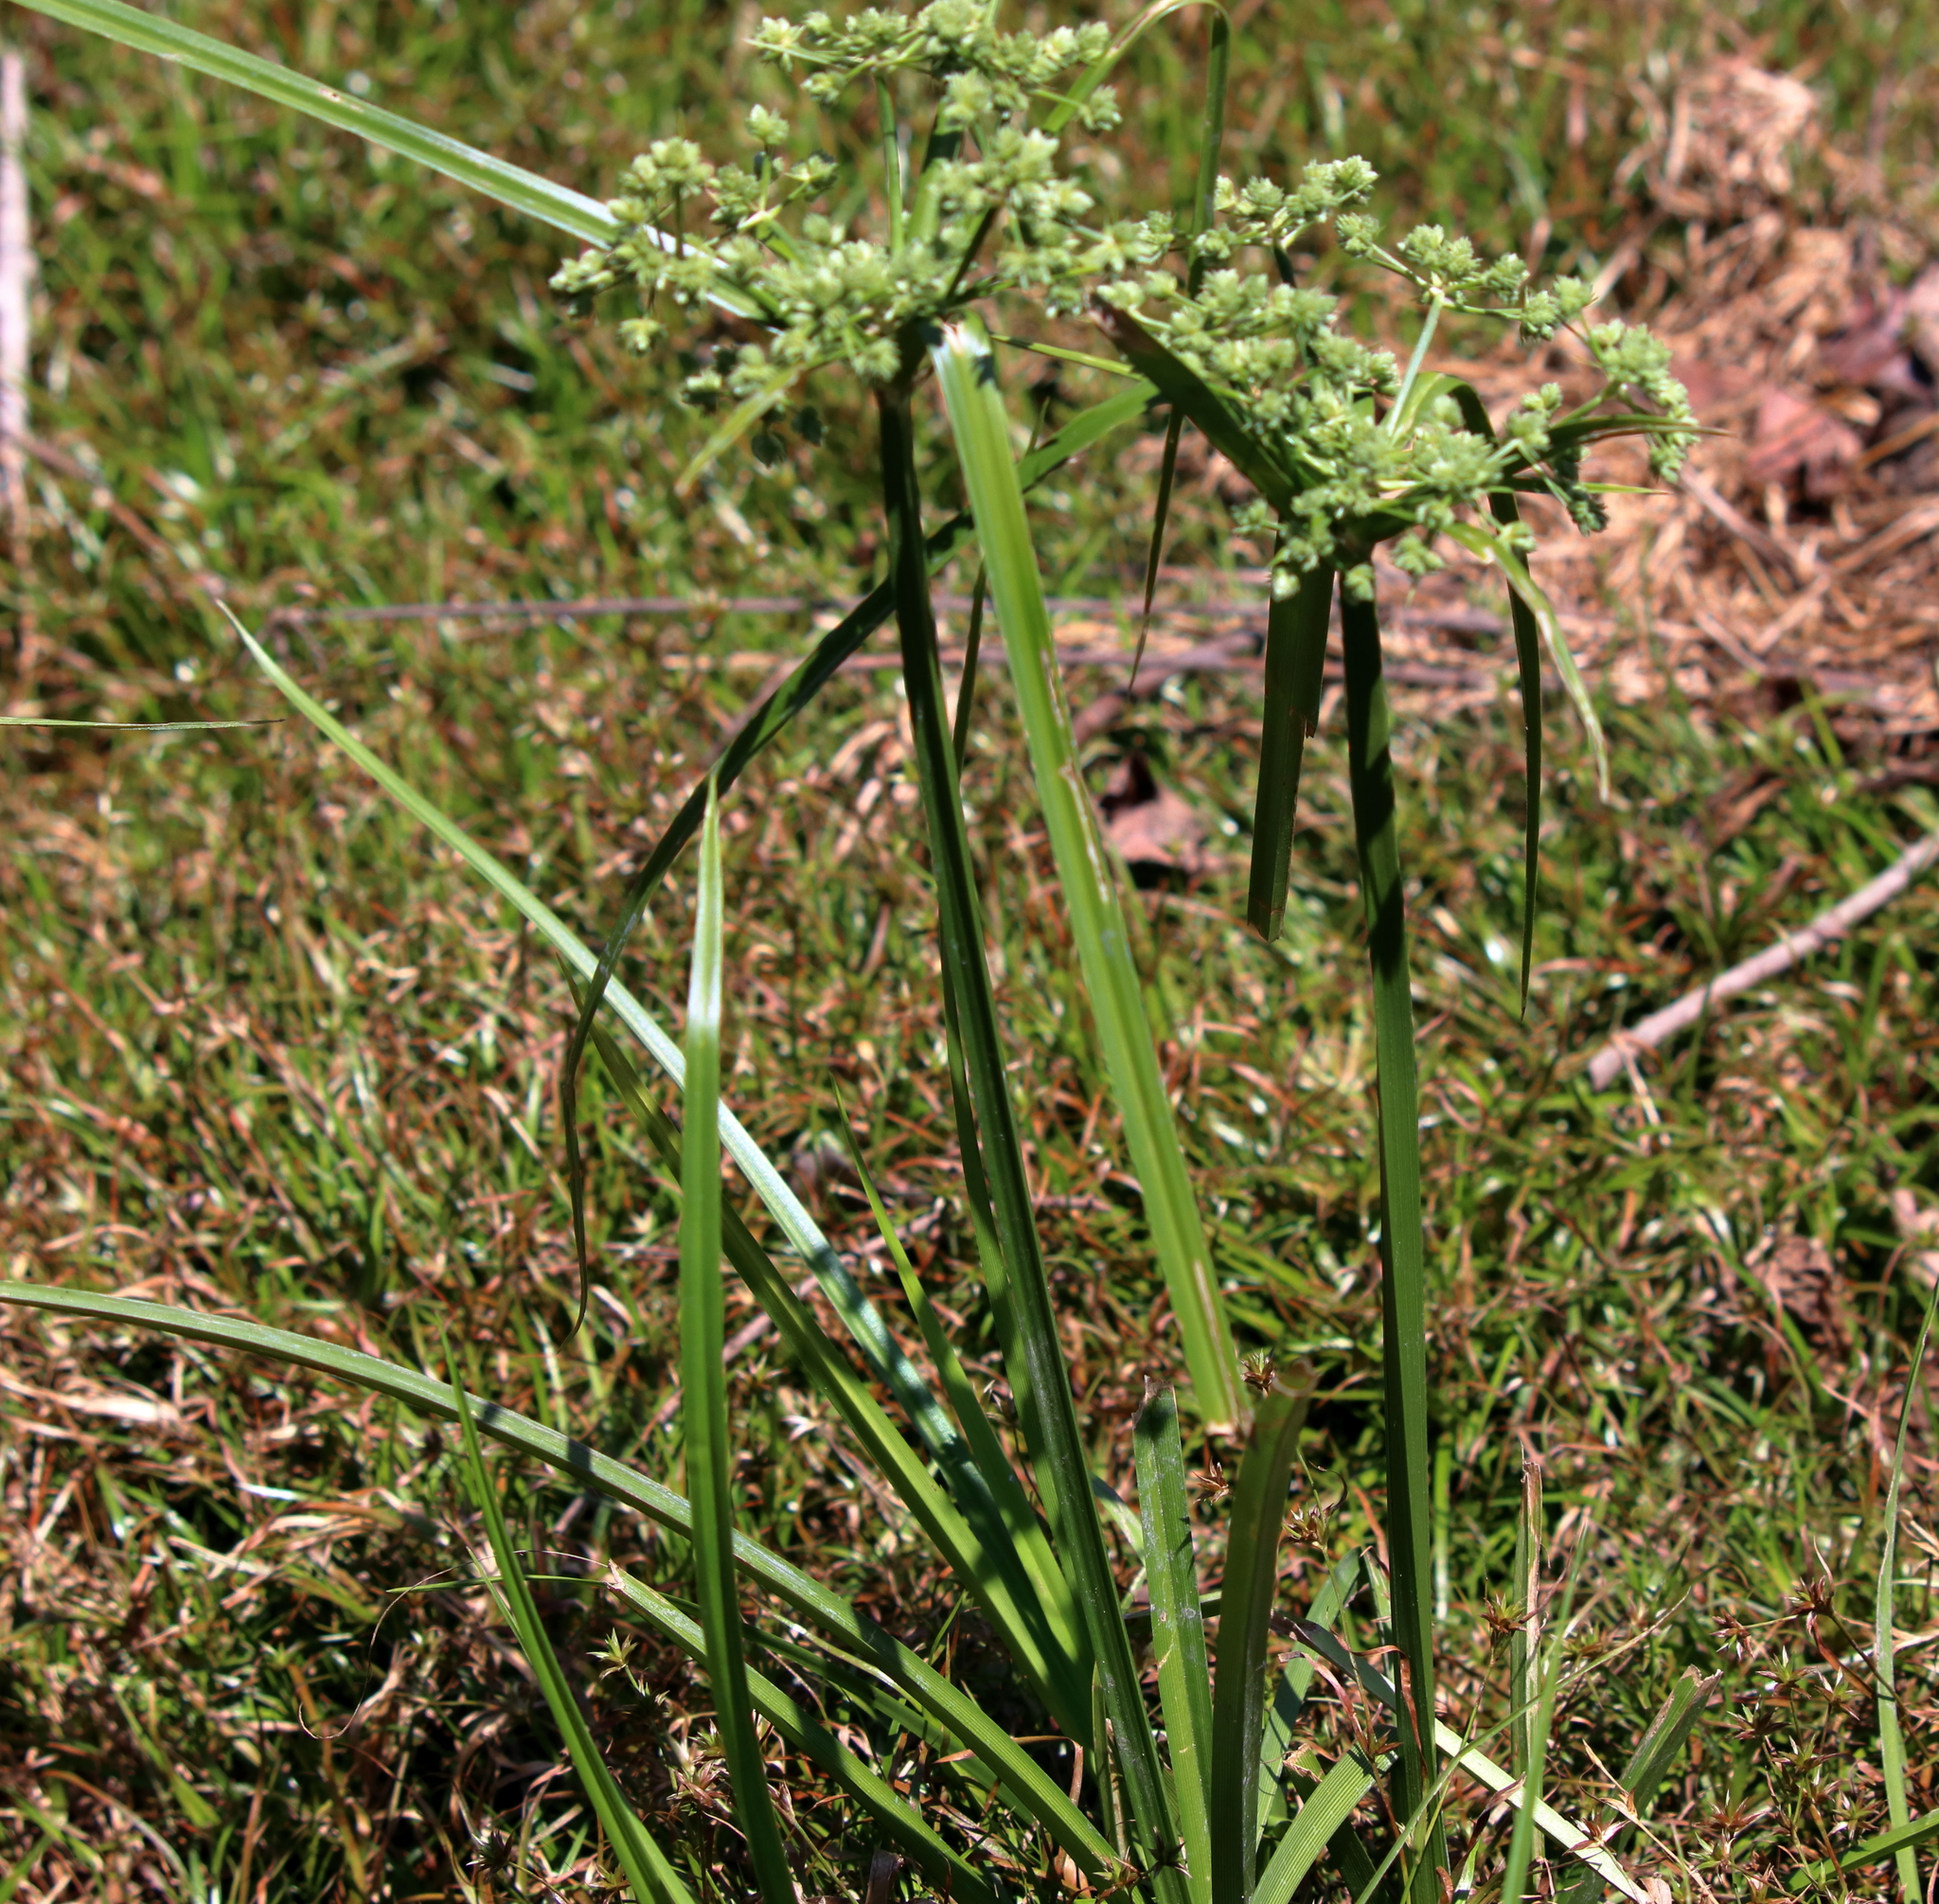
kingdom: Plantae
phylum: Tracheophyta
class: Liliopsida
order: Poales
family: Cyperaceae
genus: Cyperus
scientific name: Cyperus virens
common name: Green flatsedge
